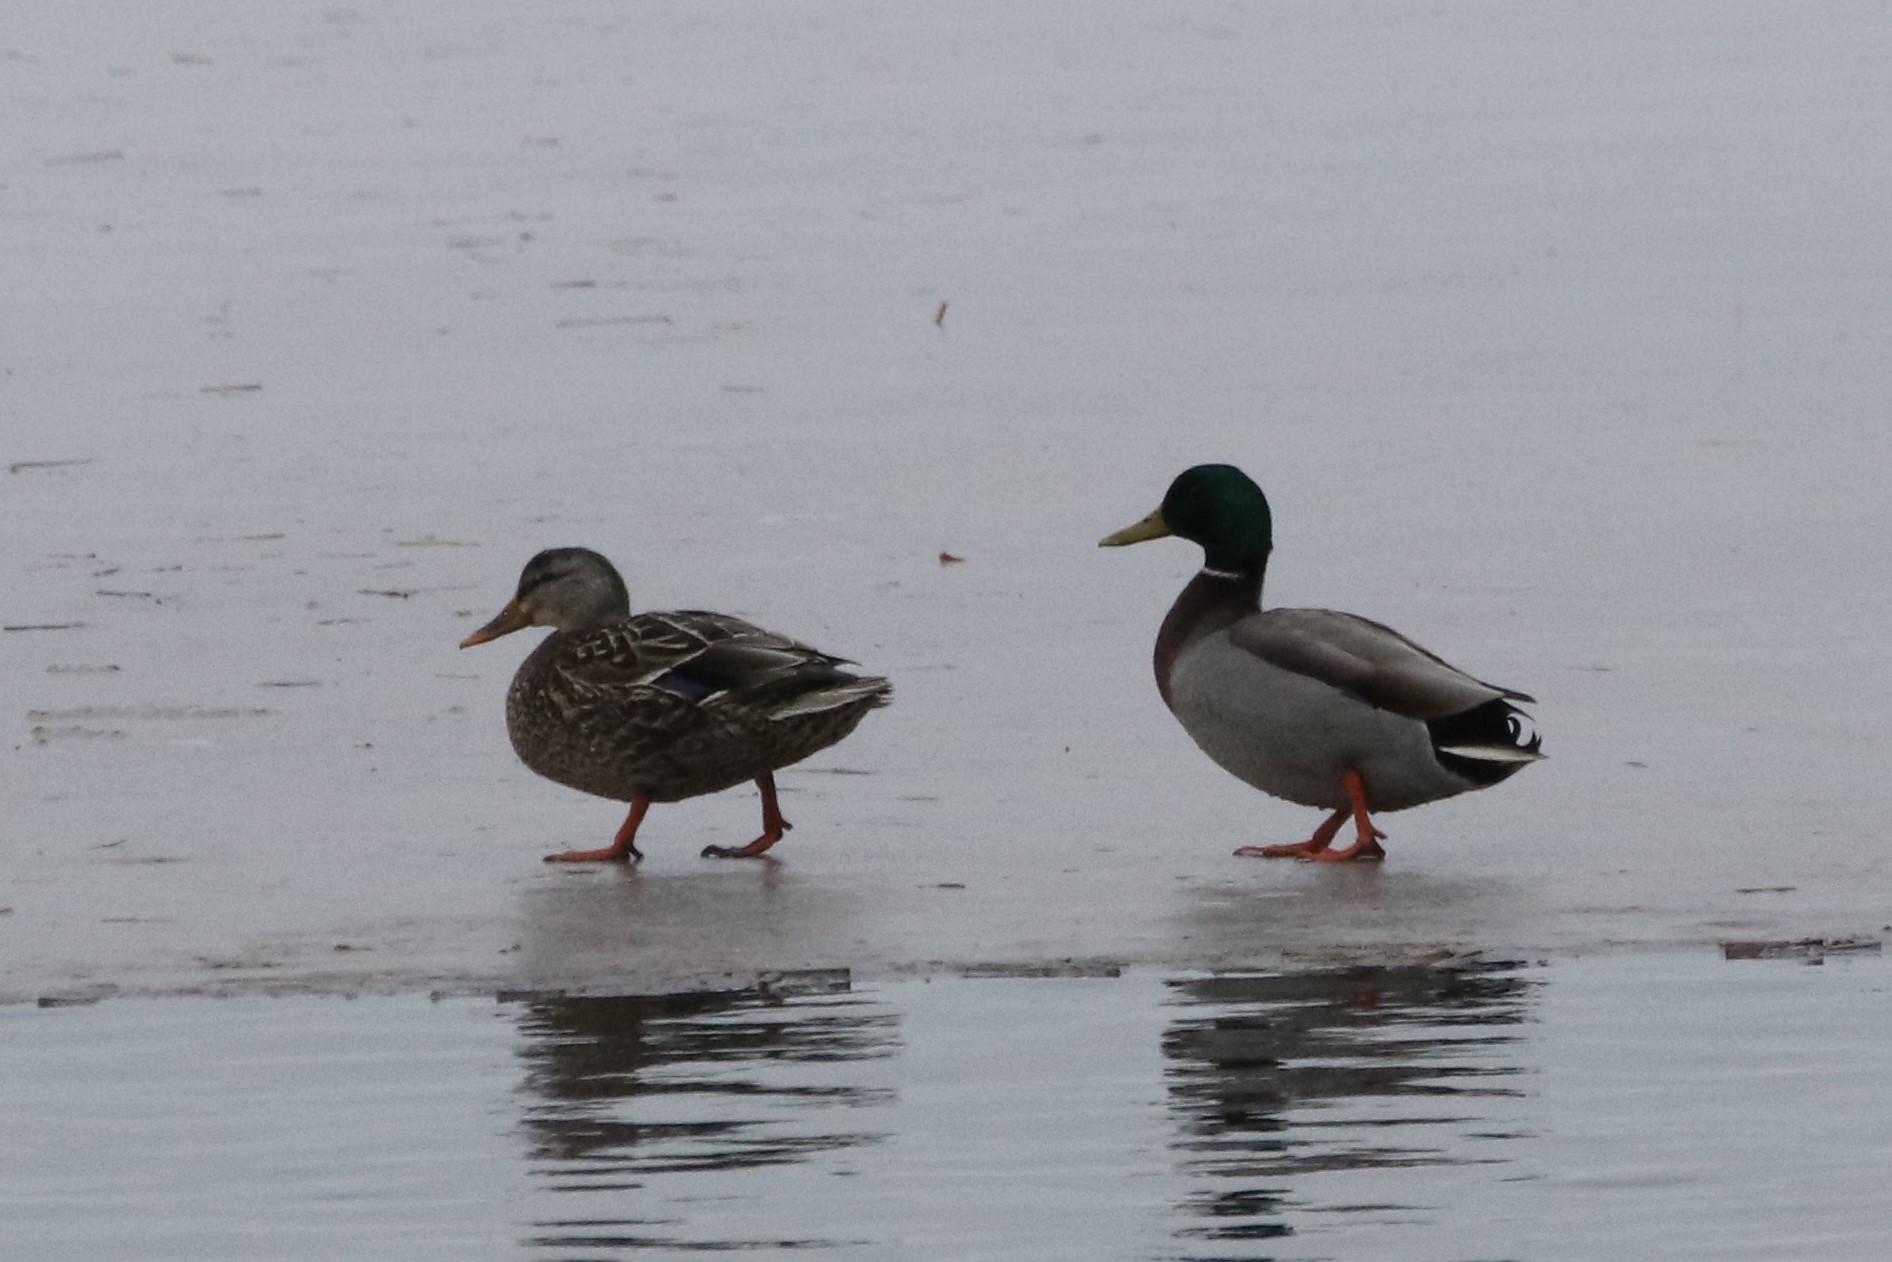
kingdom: Animalia
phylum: Chordata
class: Aves
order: Anseriformes
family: Anatidae
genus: Anas
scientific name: Anas platyrhynchos
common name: Mallard
